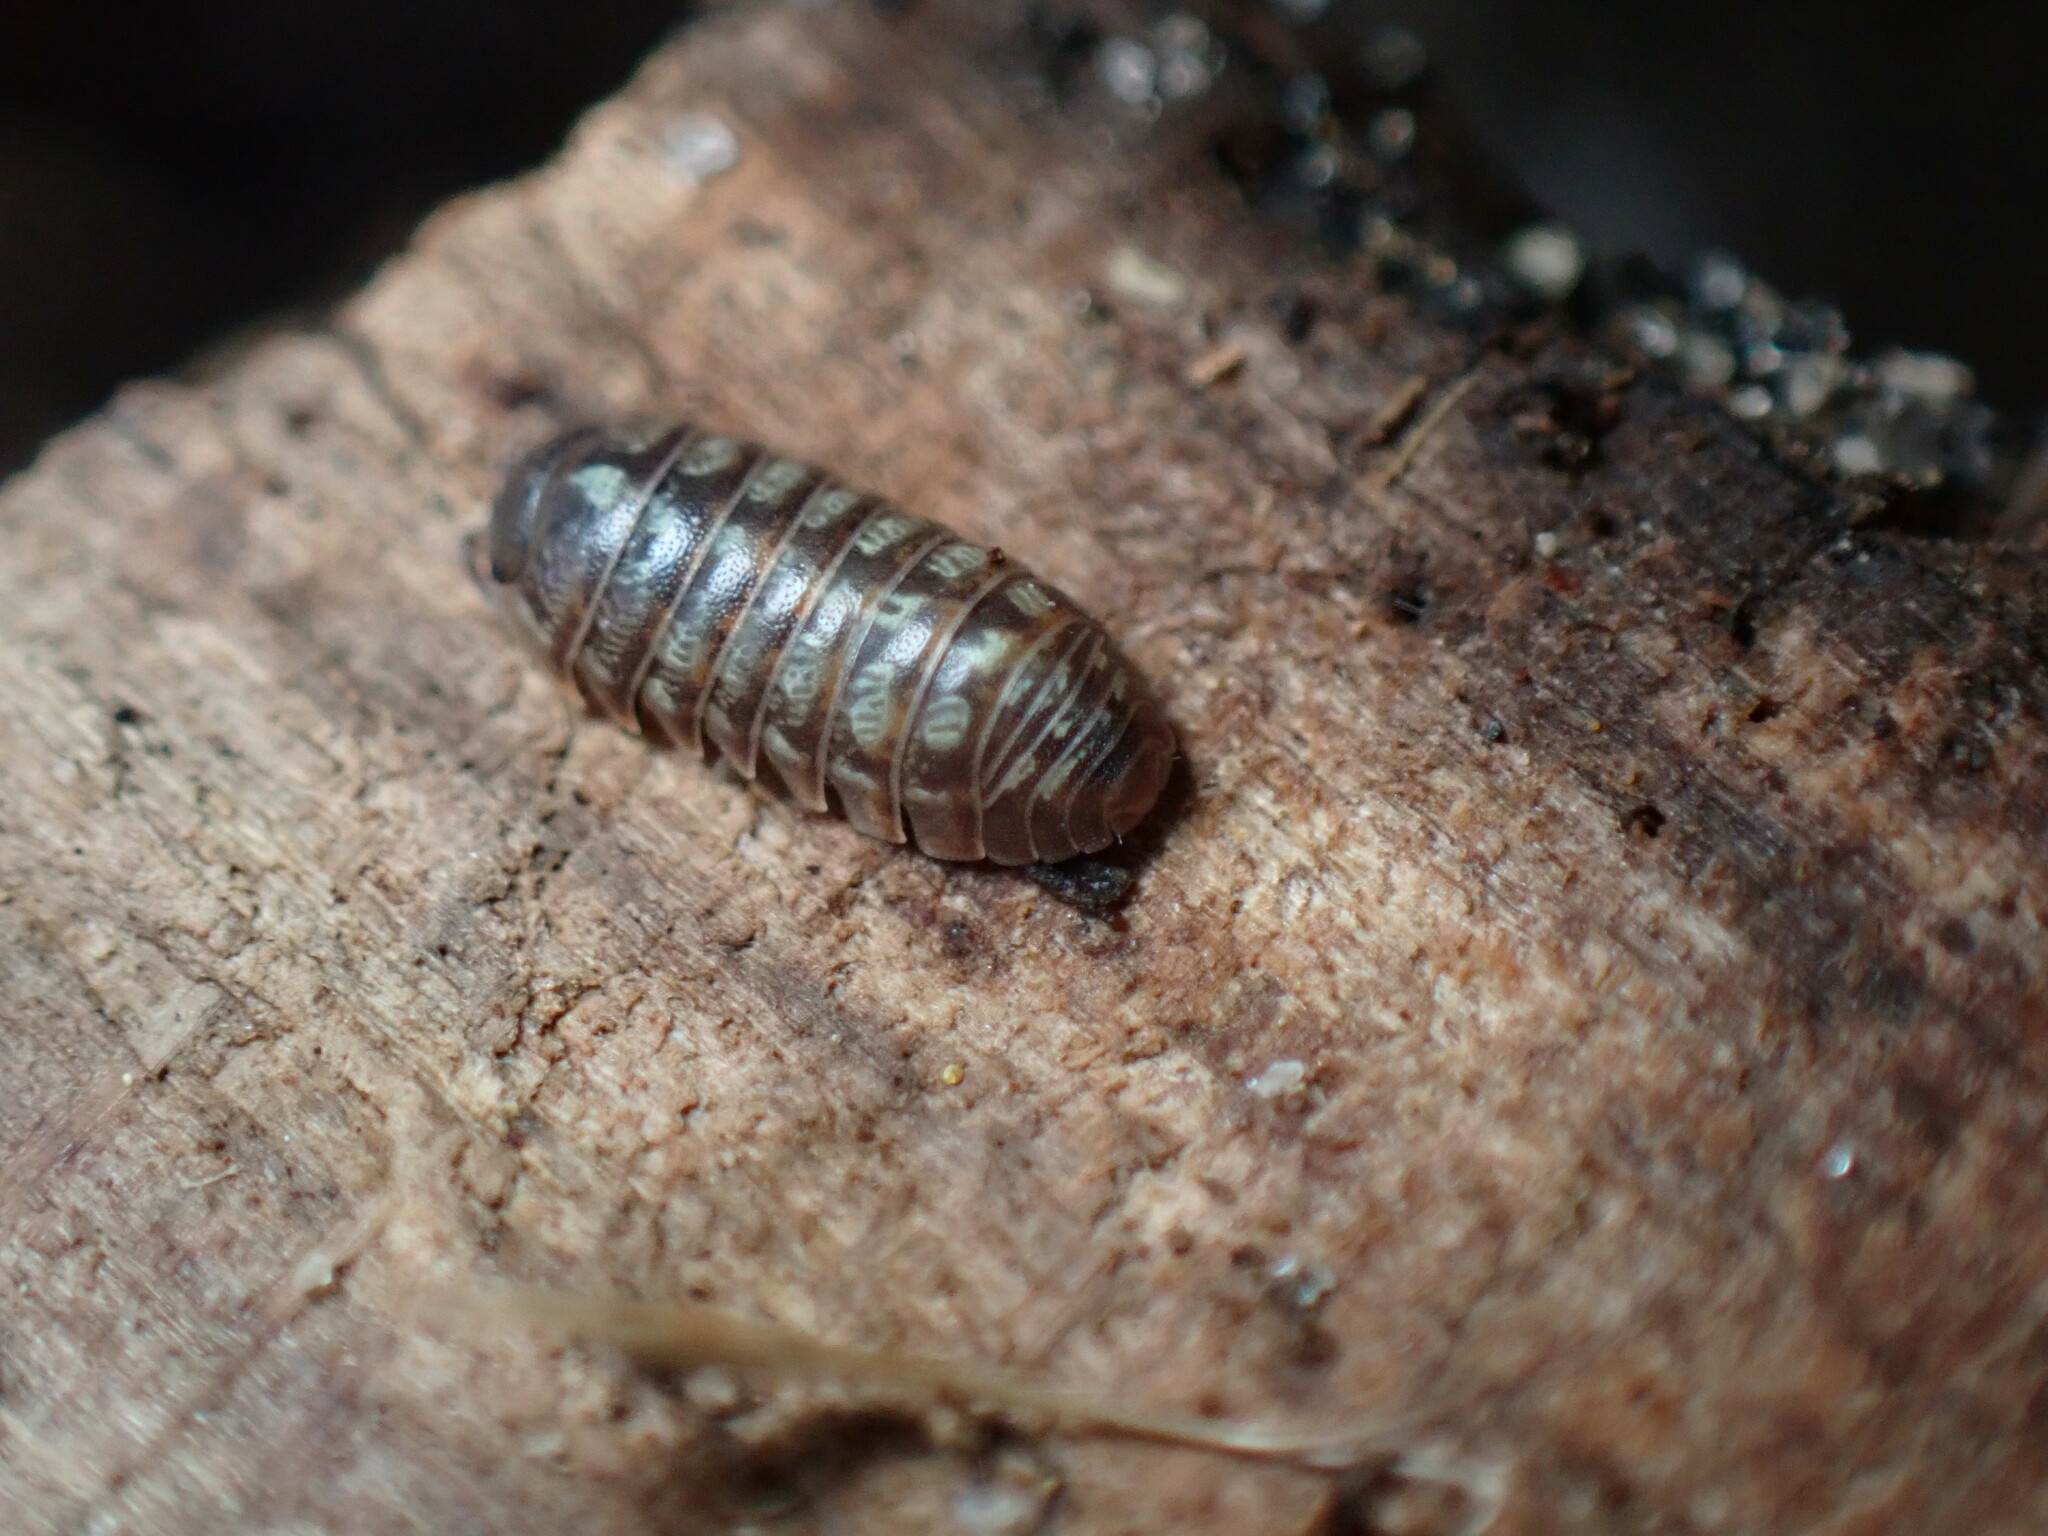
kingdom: Animalia
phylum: Arthropoda
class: Malacostraca
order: Isopoda
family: Armadillidiidae
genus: Armadillidium
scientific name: Armadillidium vulgare
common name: Common pill woodlouse
